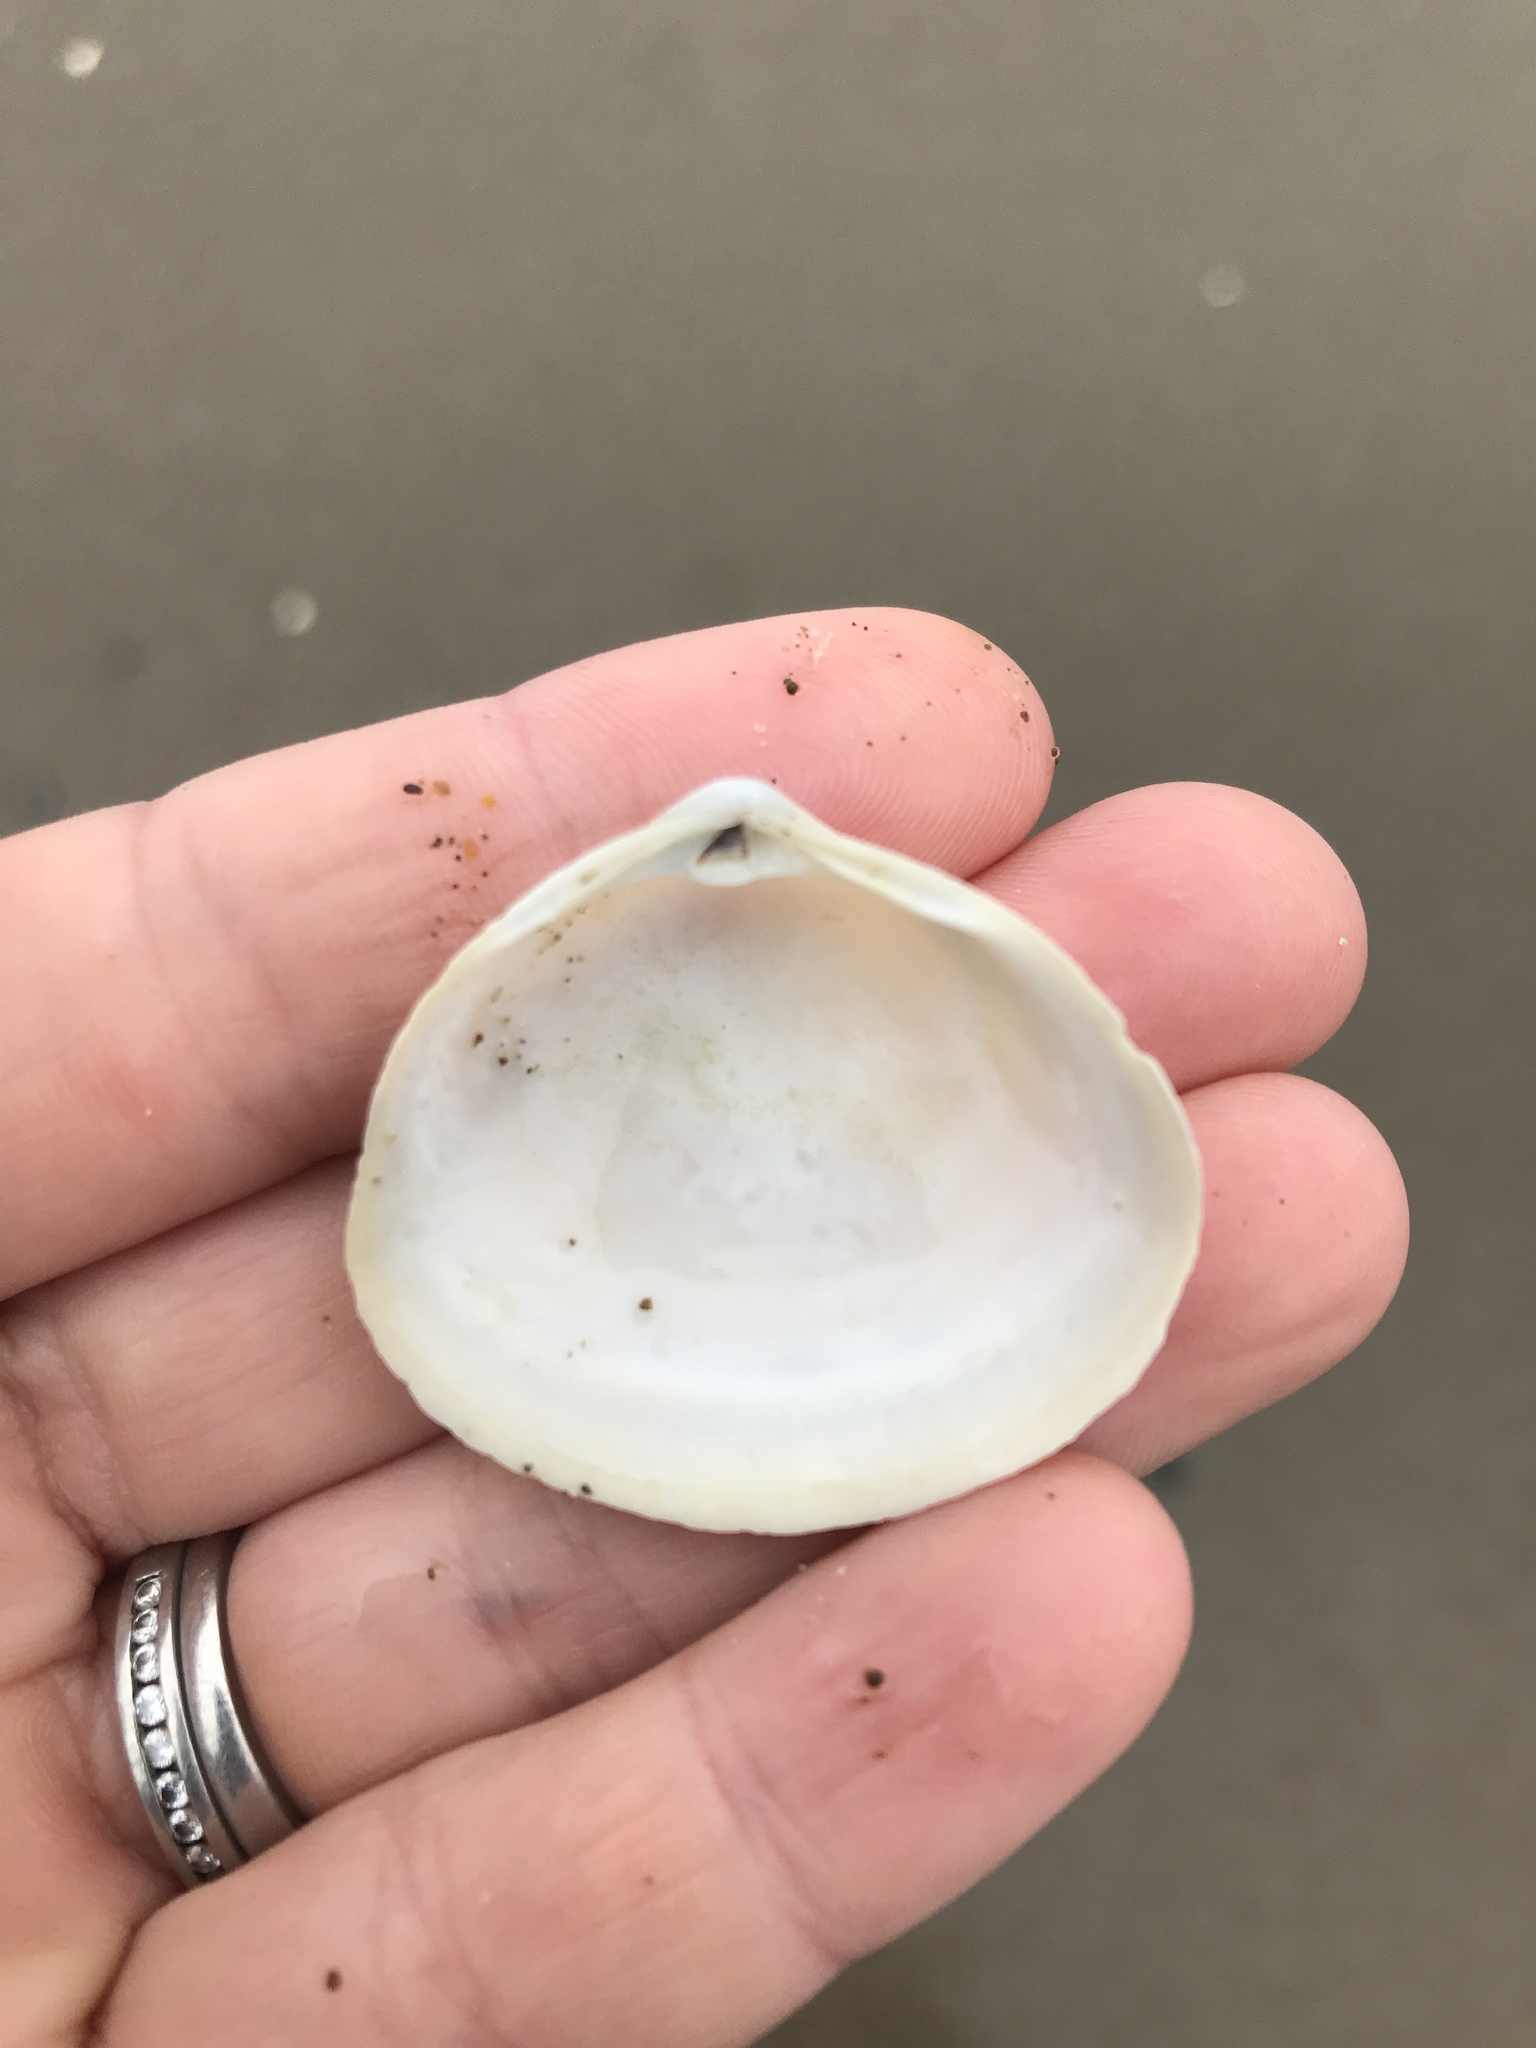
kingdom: Animalia
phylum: Mollusca
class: Bivalvia
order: Venerida
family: Mactridae
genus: Spisula
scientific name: Spisula discors
